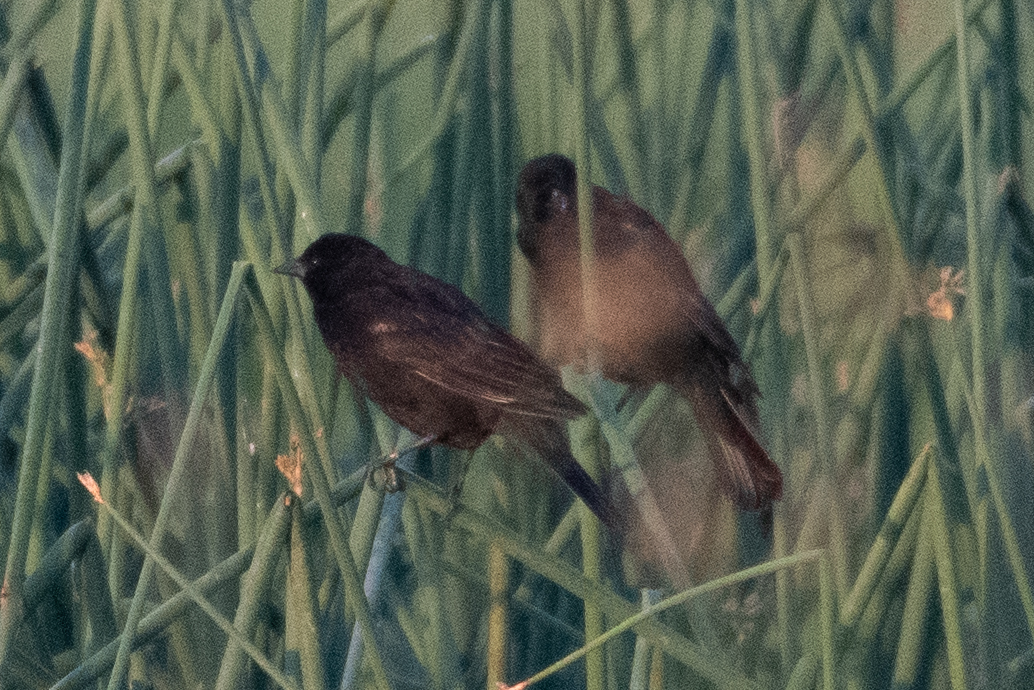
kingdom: Animalia
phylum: Chordata
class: Aves
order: Passeriformes
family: Icteridae
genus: Agelaius
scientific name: Agelaius phoeniceus
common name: Red-winged blackbird
